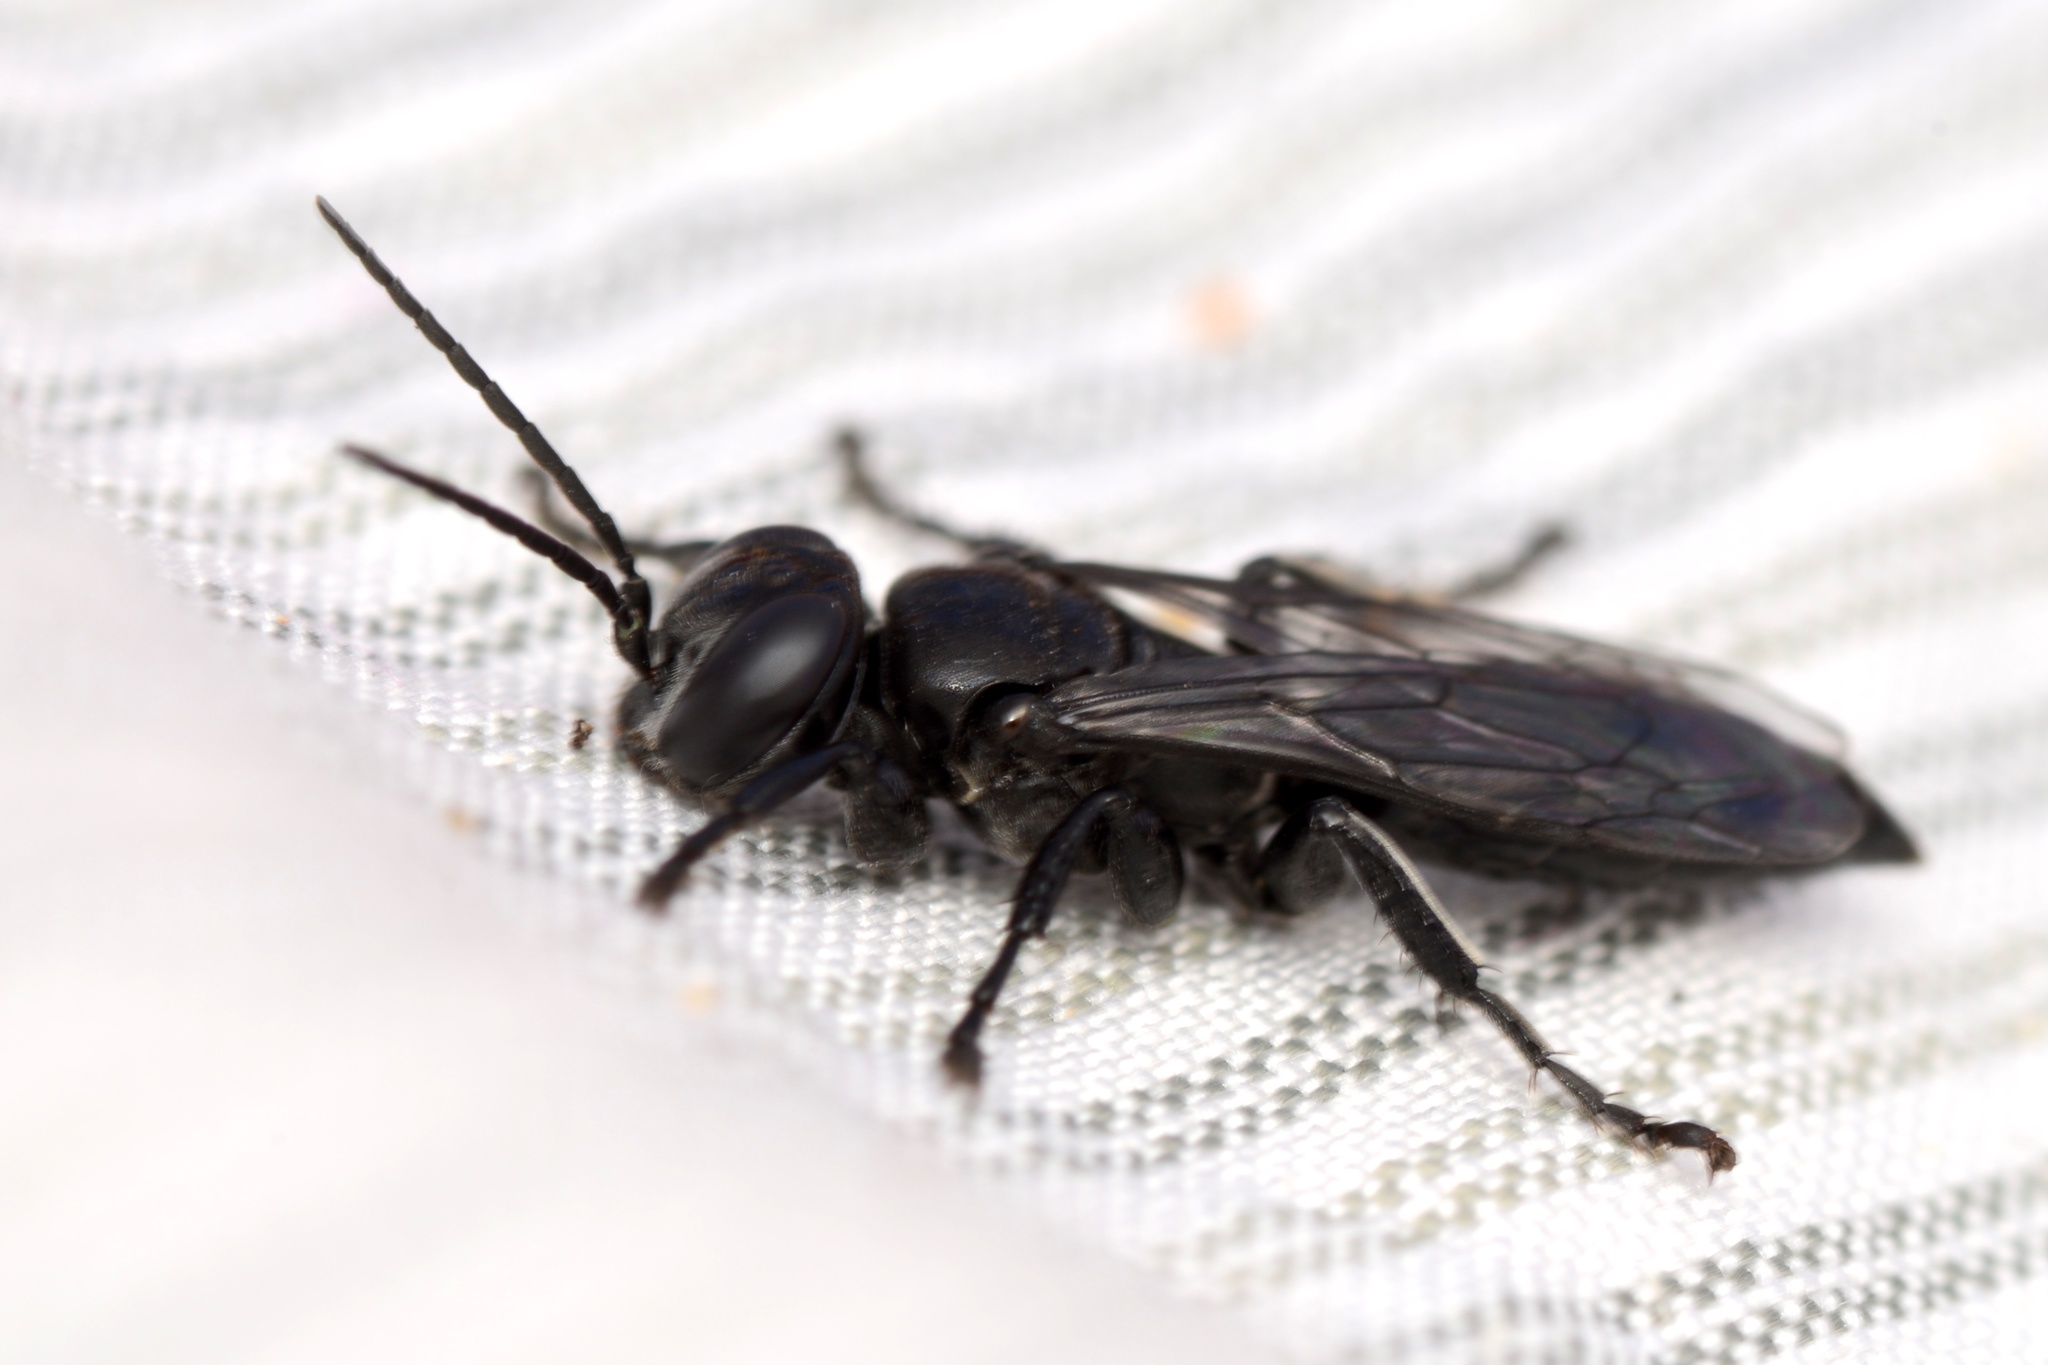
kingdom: Animalia
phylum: Arthropoda
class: Insecta
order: Hymenoptera
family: Crabronidae
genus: Tachysphex
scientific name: Tachysphex nigerrimus
